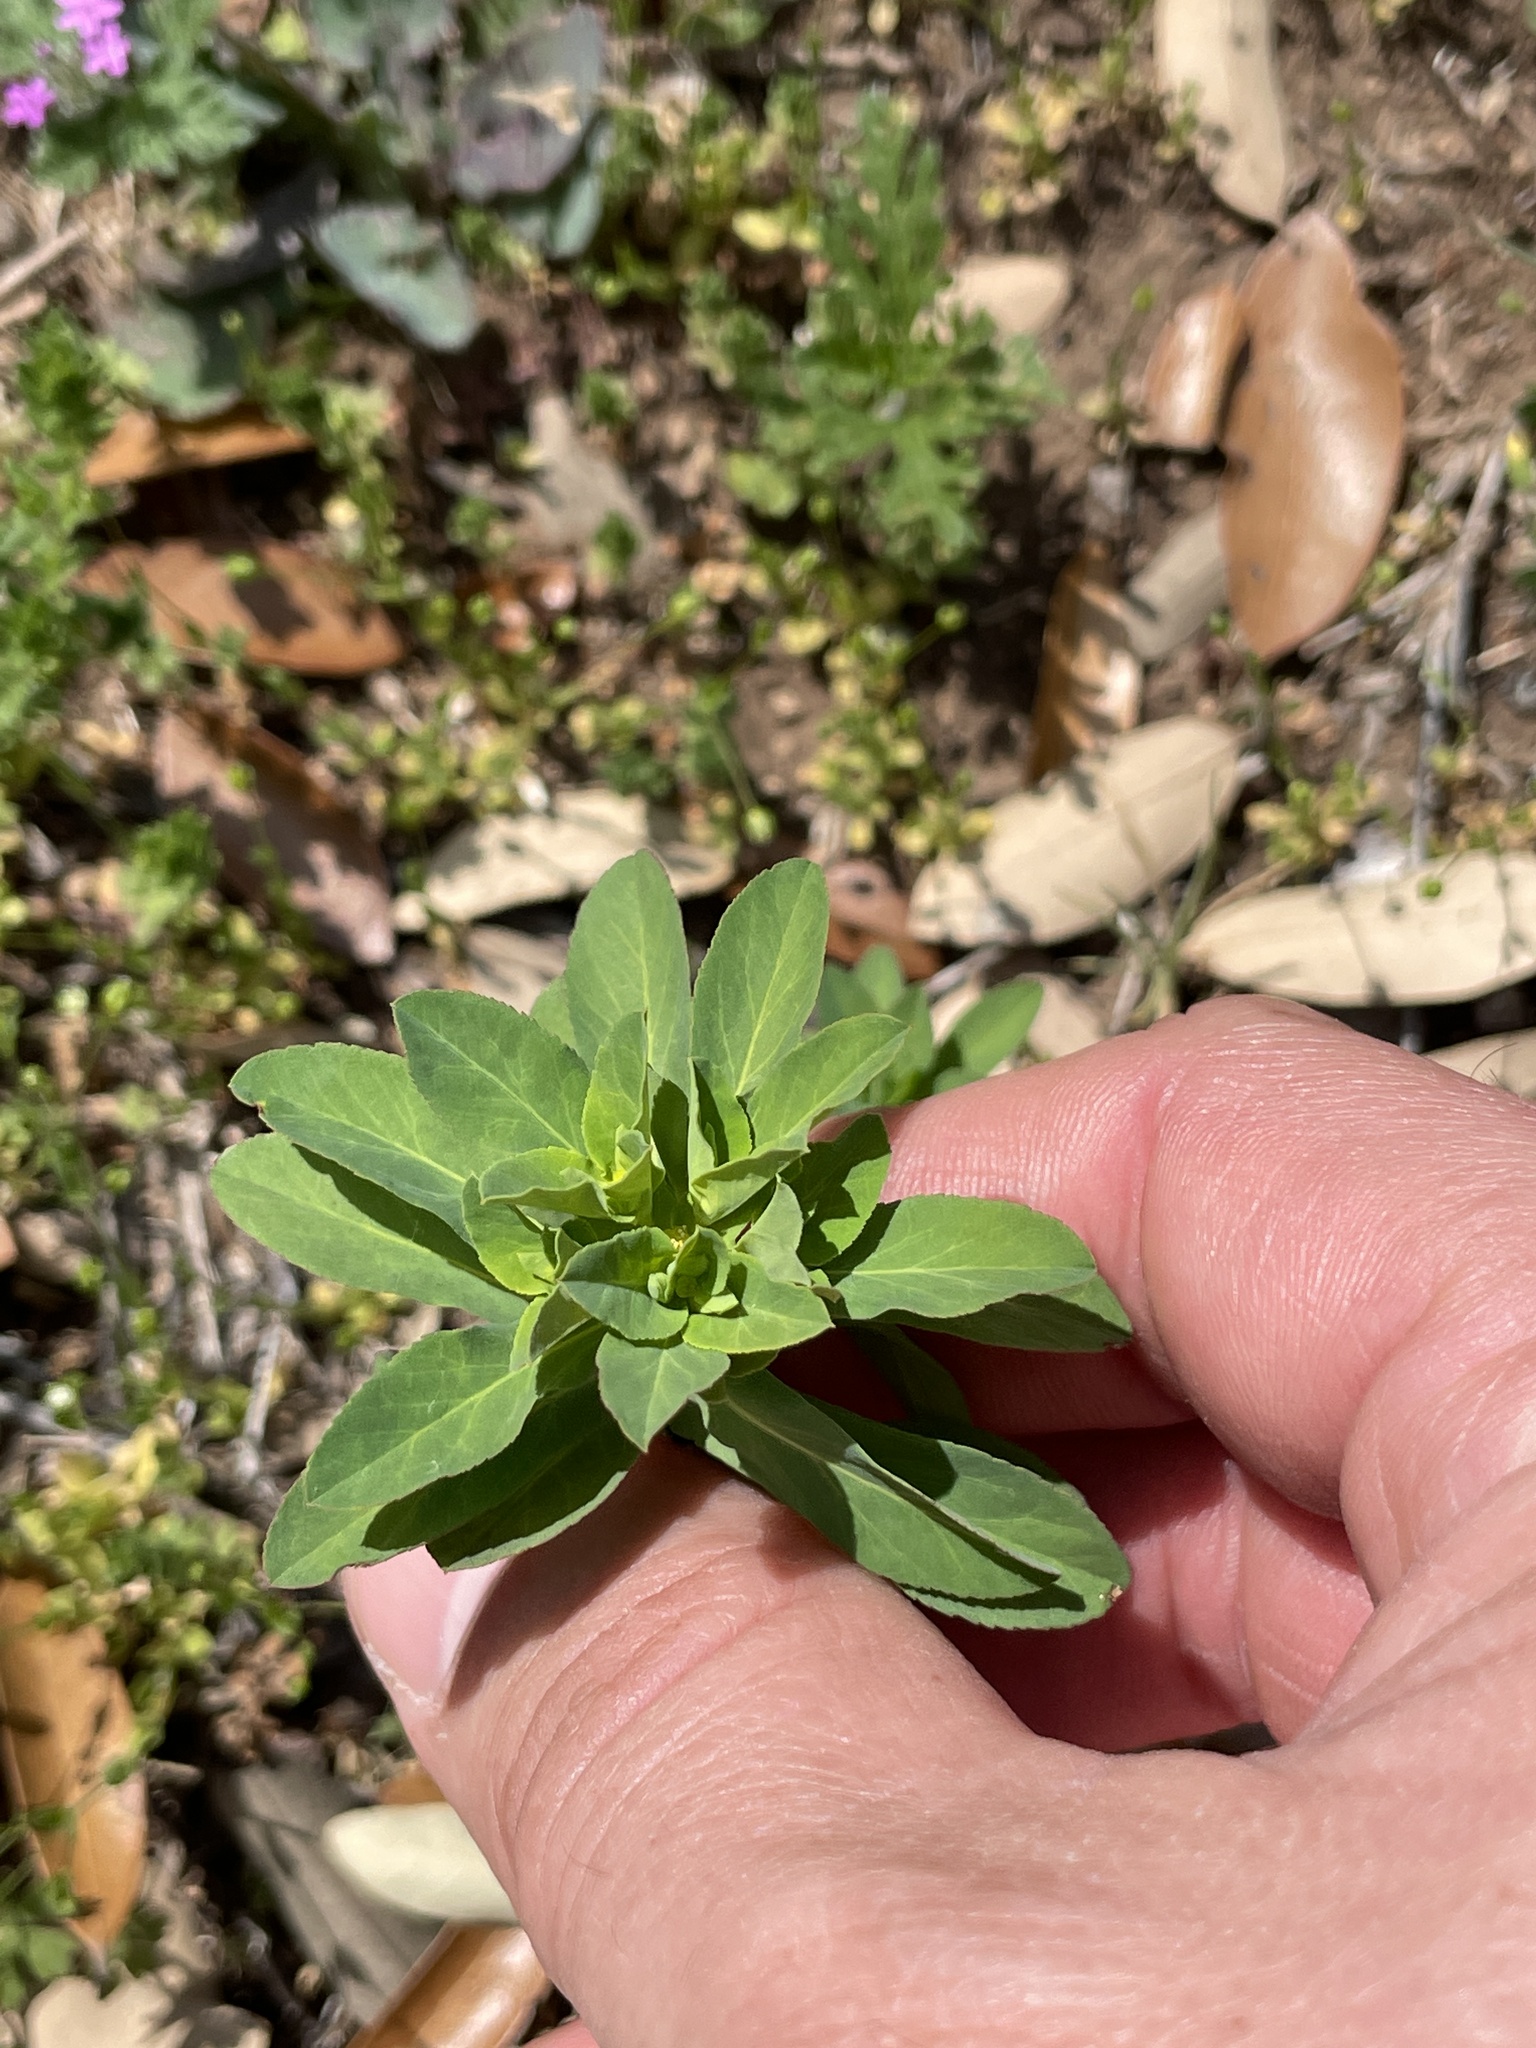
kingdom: Plantae
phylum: Tracheophyta
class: Magnoliopsida
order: Malpighiales
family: Euphorbiaceae
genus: Euphorbia
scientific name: Euphorbia spathulata
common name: Blunt spurge
